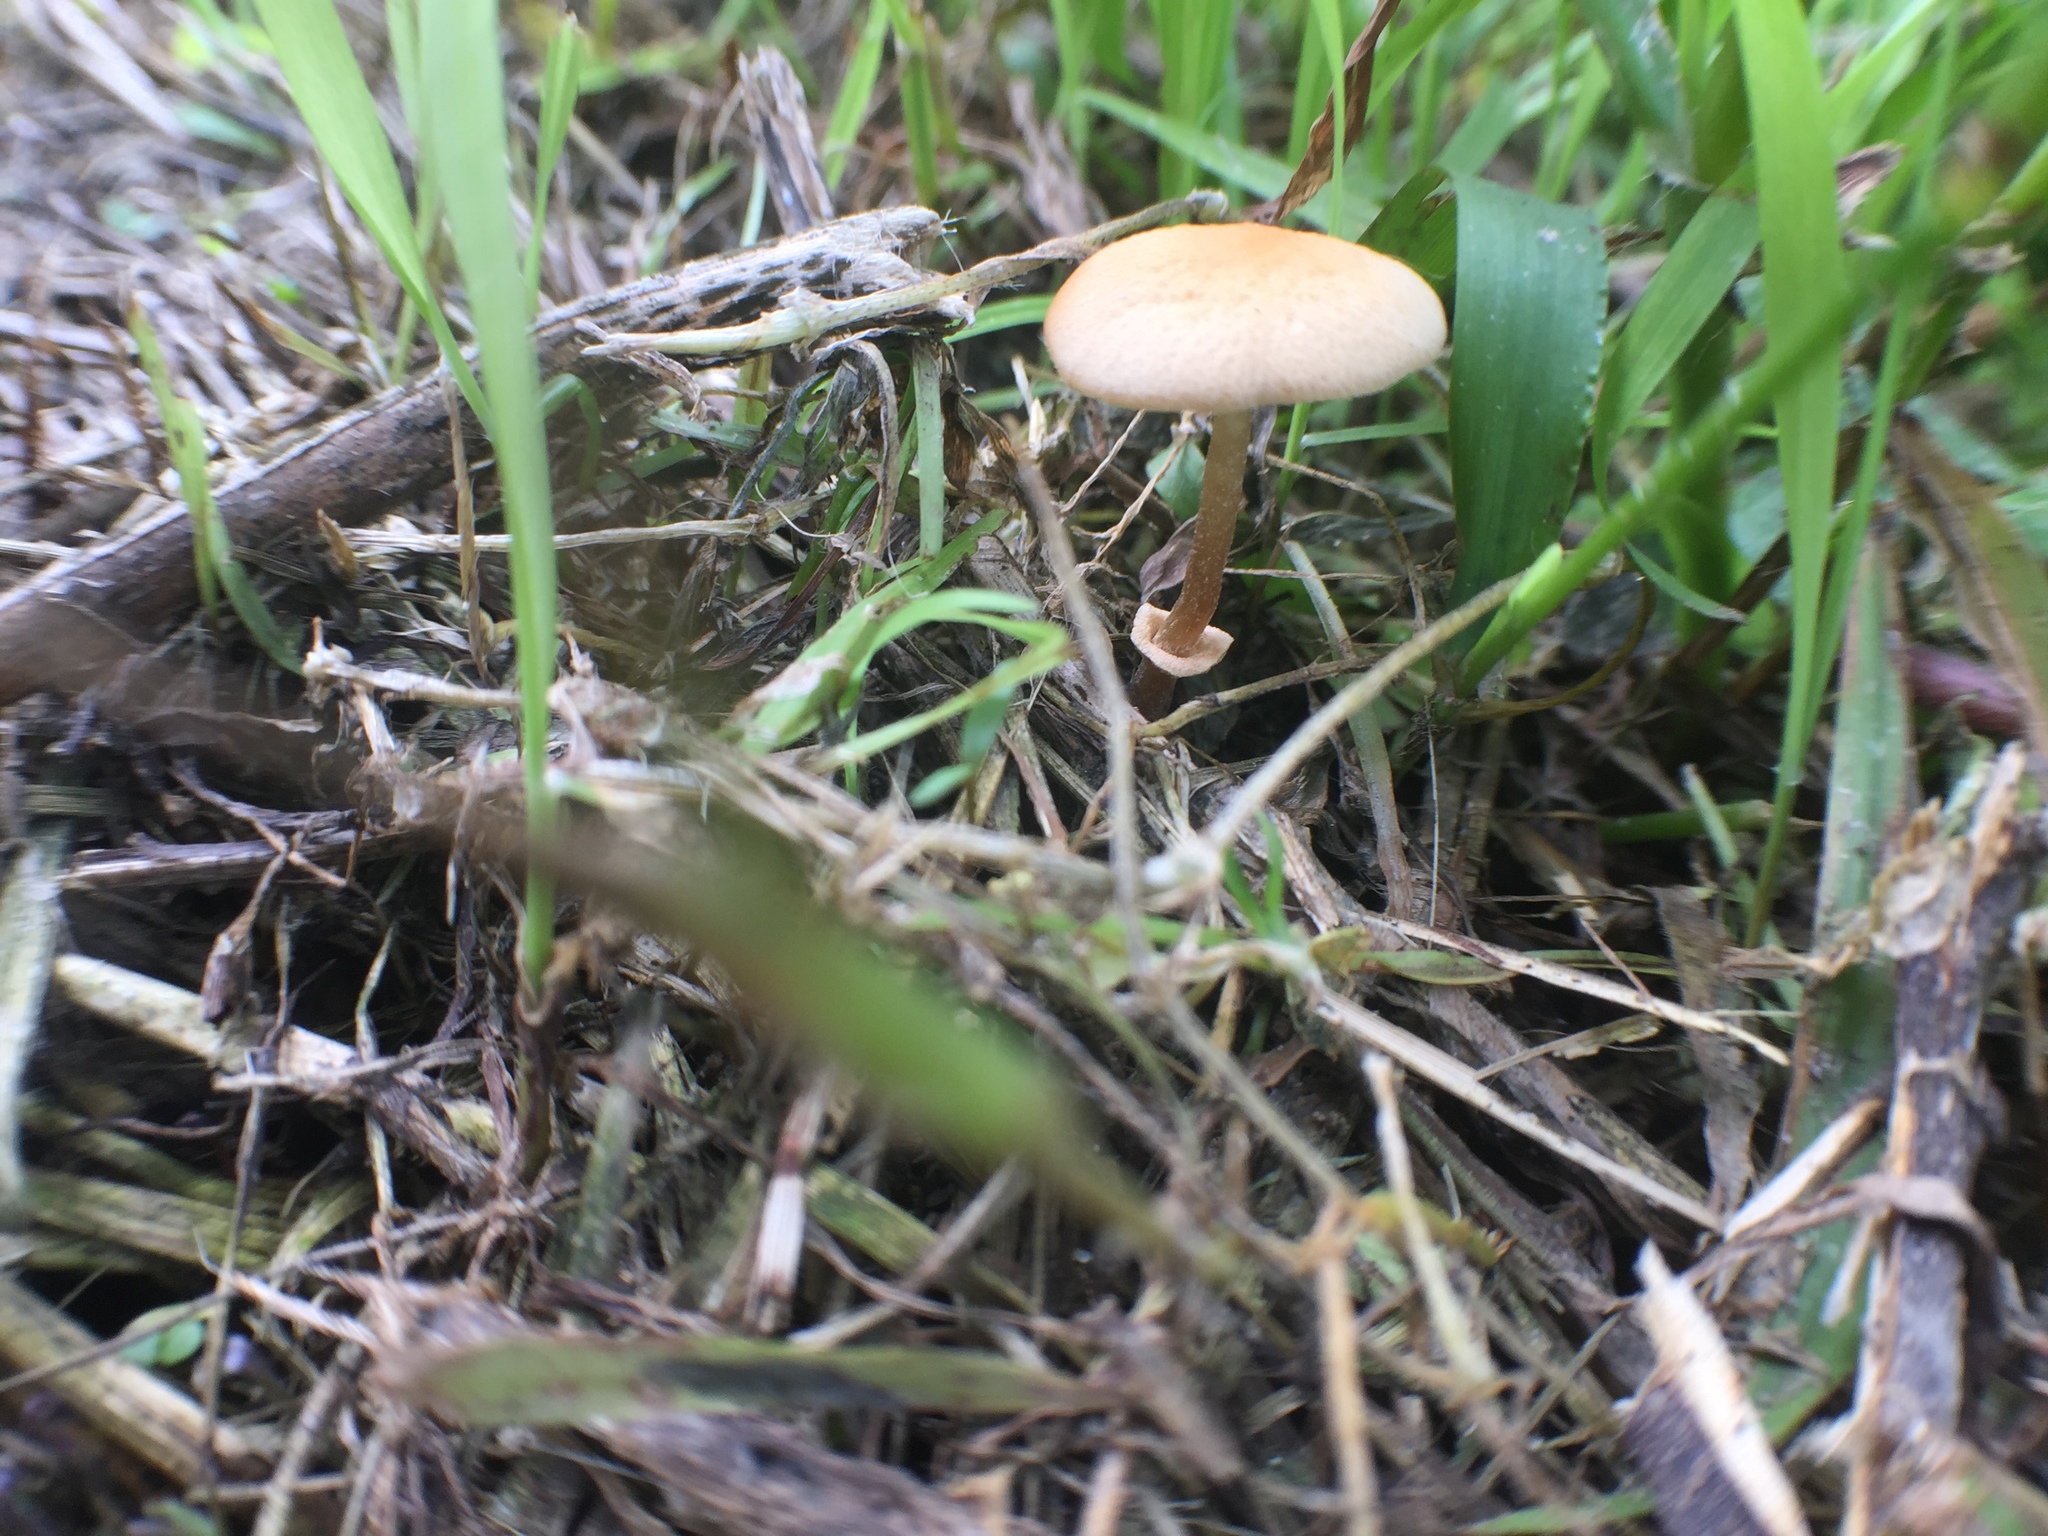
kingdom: Fungi
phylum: Basidiomycota
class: Agaricomycetes
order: Agaricales
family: Bolbitiaceae
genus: Conocybe
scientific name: Conocybe rugosa
